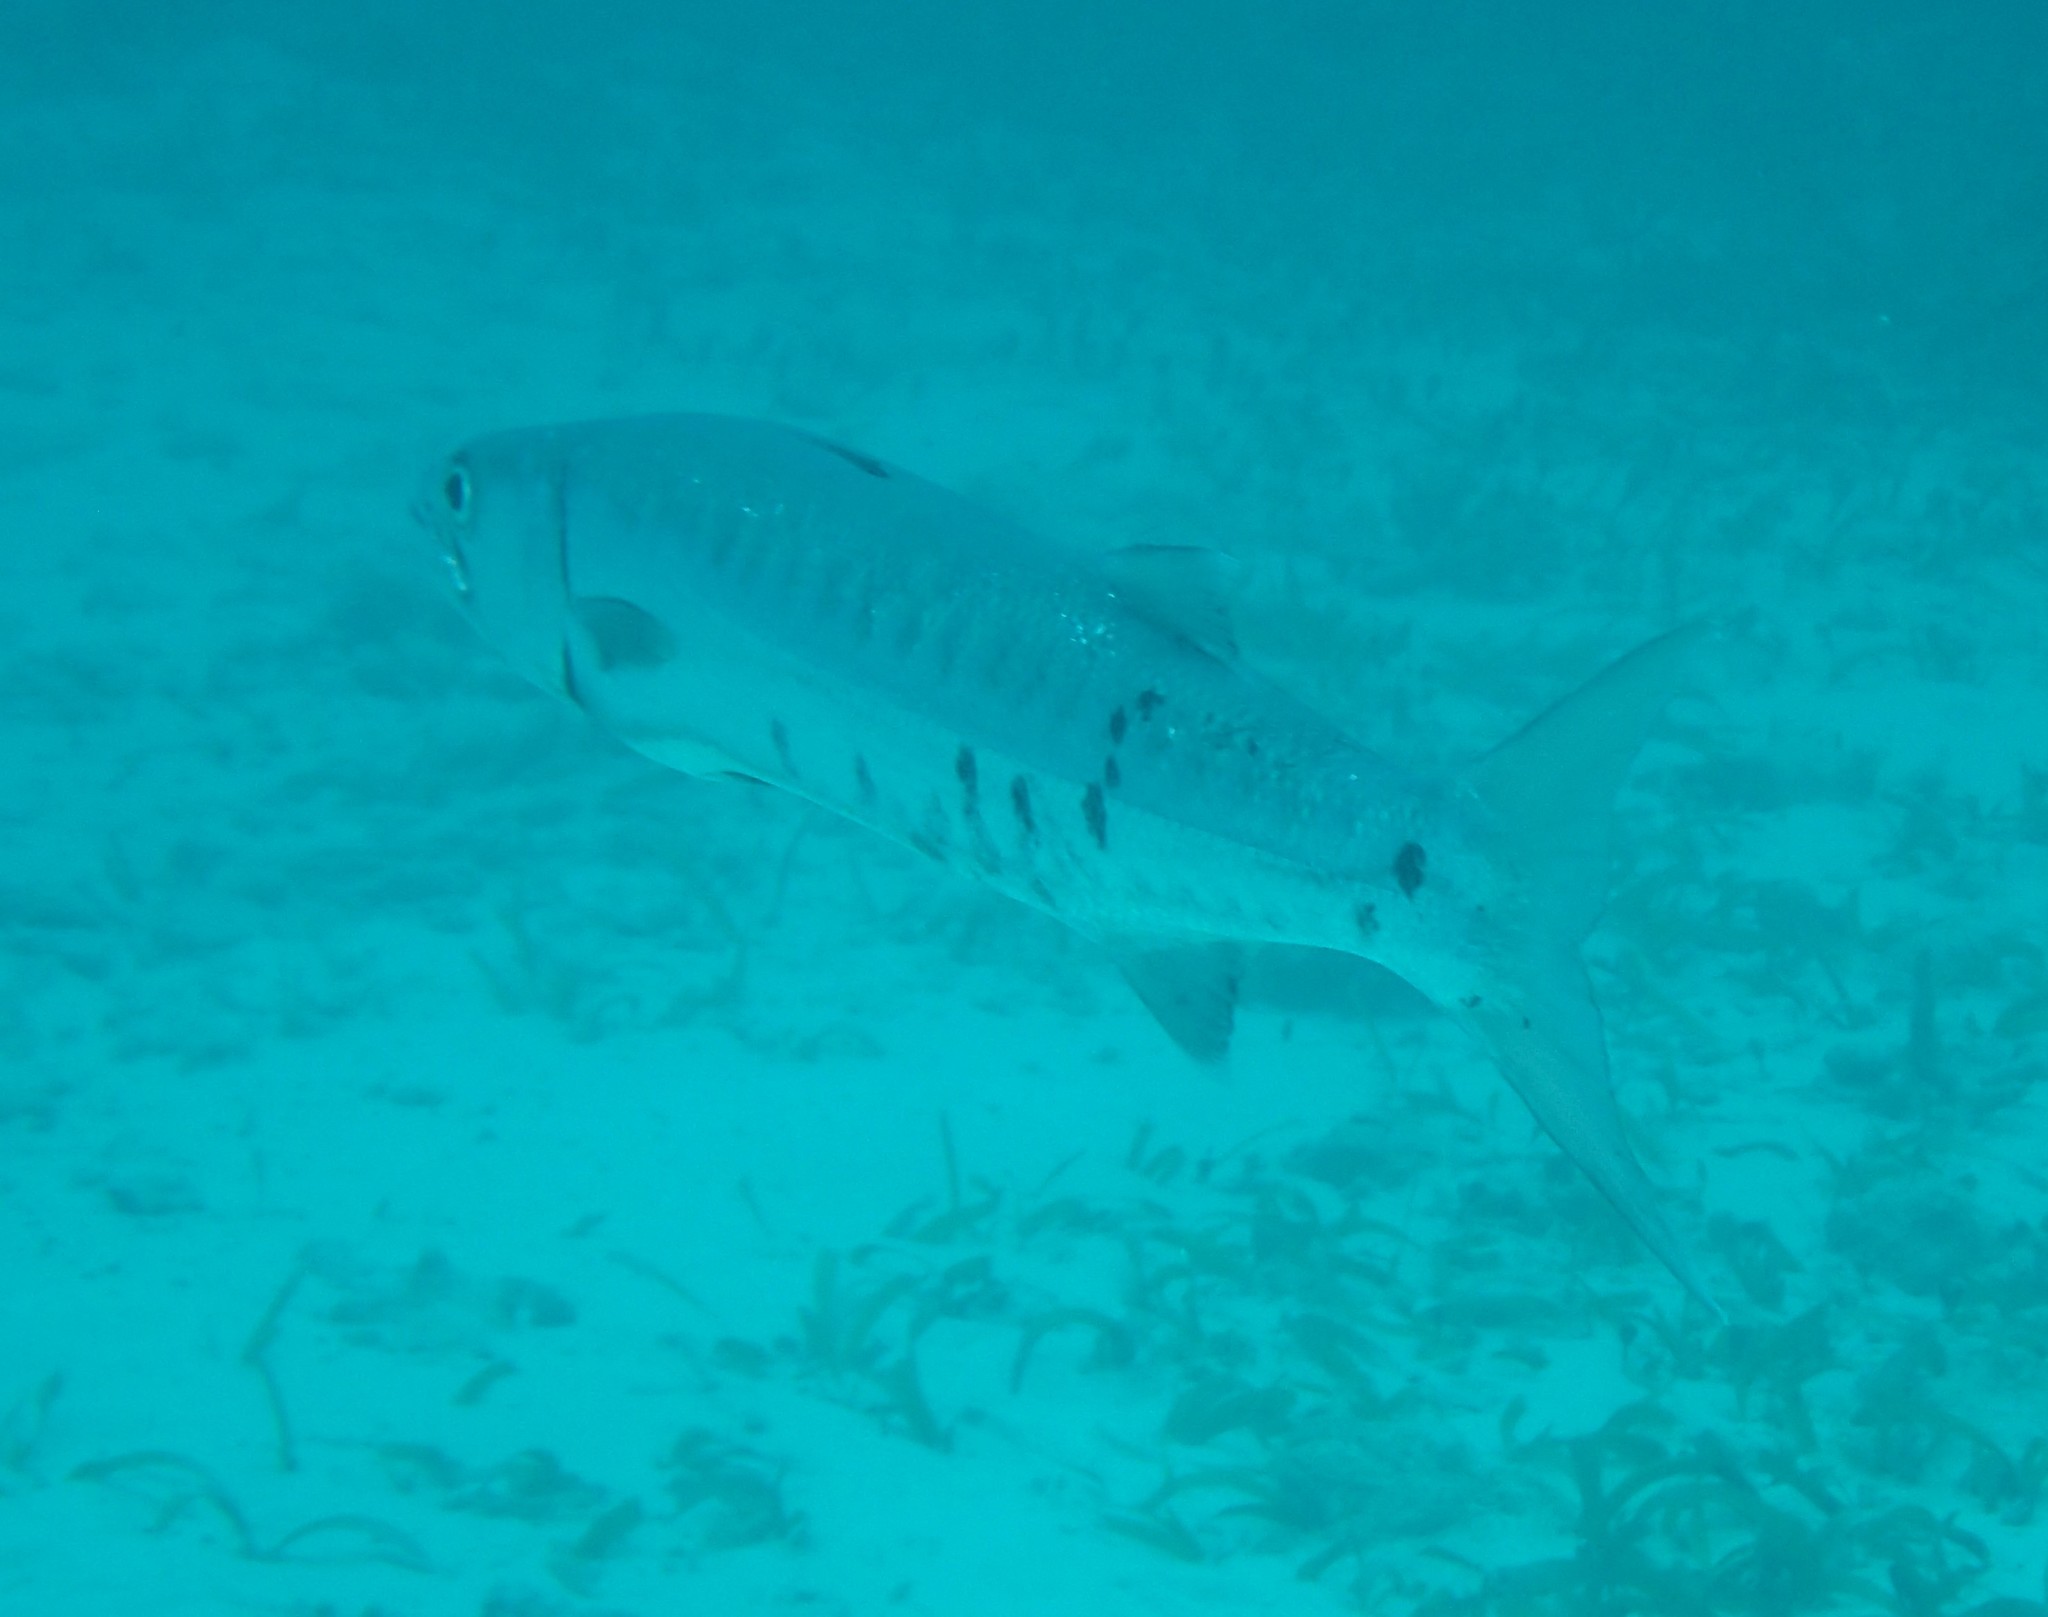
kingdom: Animalia
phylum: Chordata
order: Perciformes
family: Sphyraenidae
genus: Sphyraena
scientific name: Sphyraena barracuda
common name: Great barracuda
